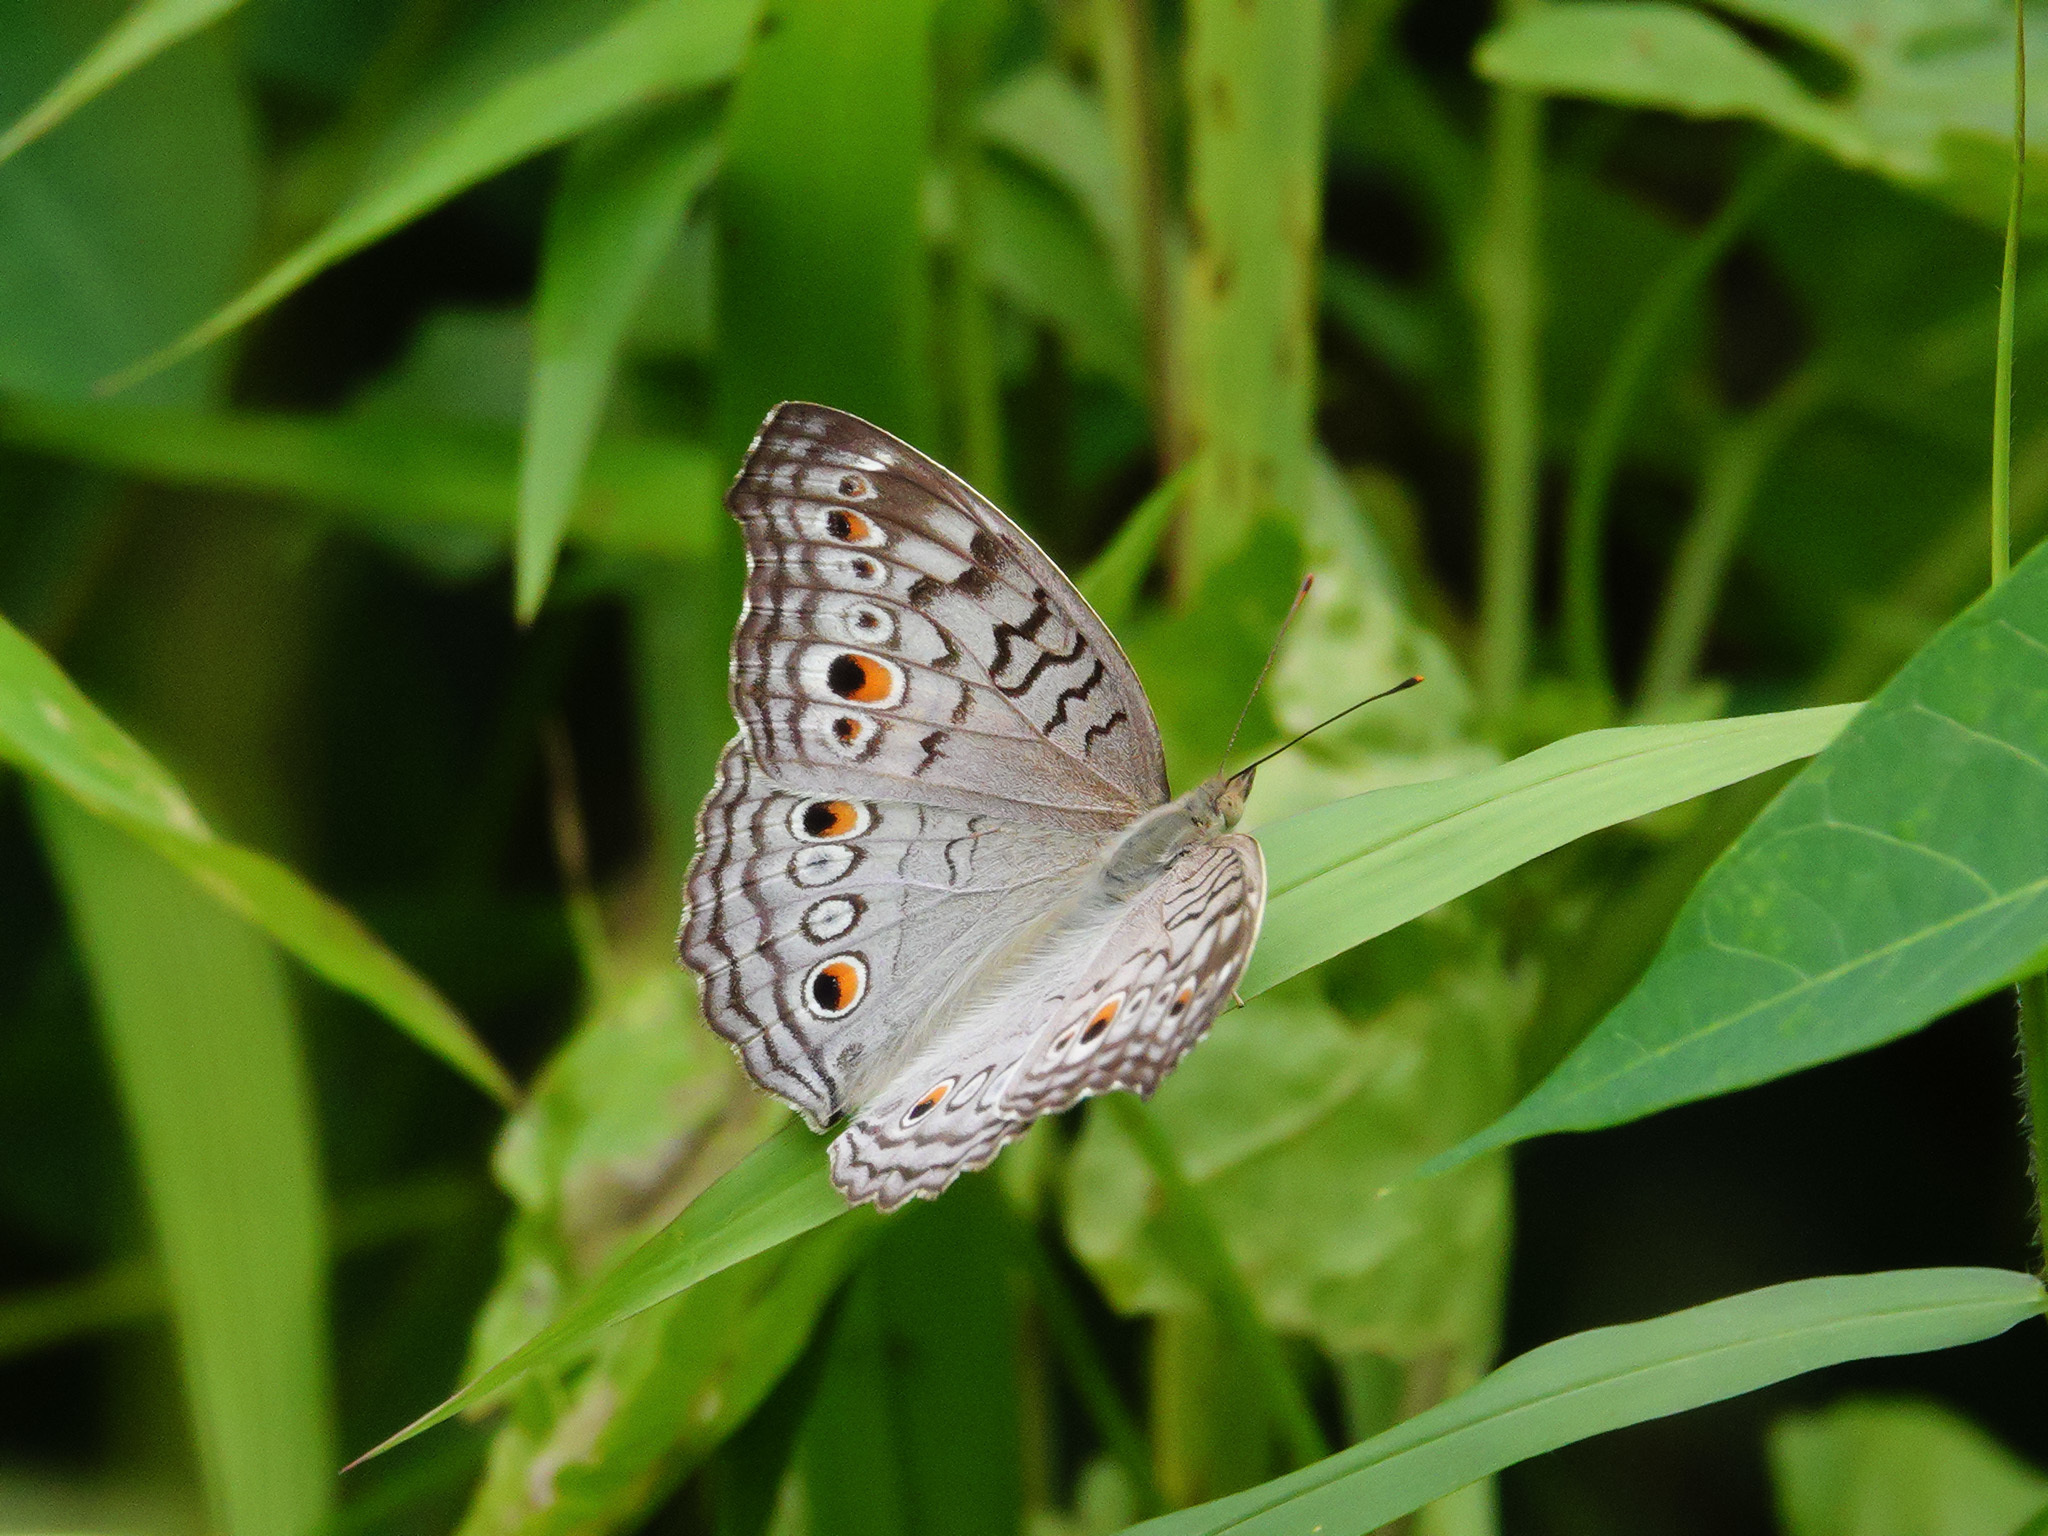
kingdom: Animalia
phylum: Arthropoda
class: Insecta
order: Lepidoptera
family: Nymphalidae
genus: Junonia
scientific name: Junonia atlites
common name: Grey pansy
